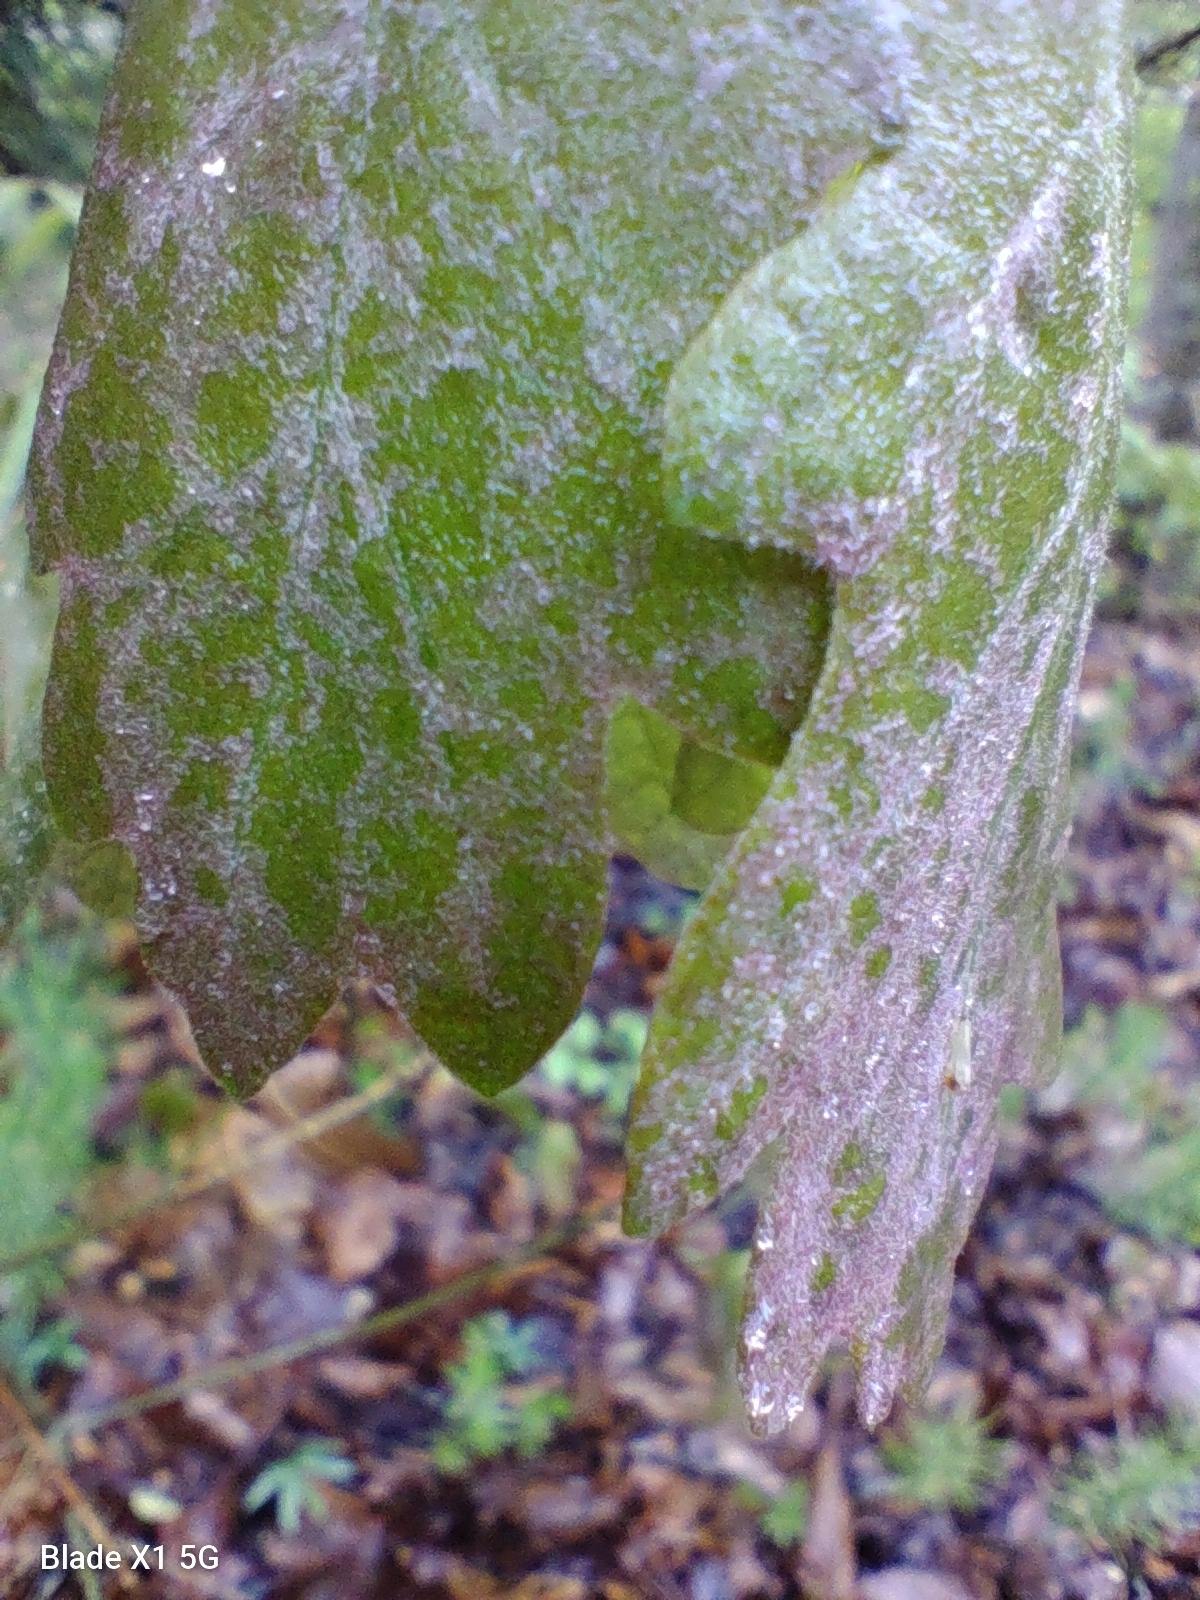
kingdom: Fungi
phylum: Ascomycota
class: Sordariomycetes
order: Diaporthales
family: Gnomoniaceae
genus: Apiognomonia
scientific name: Apiognomonia errabunda
